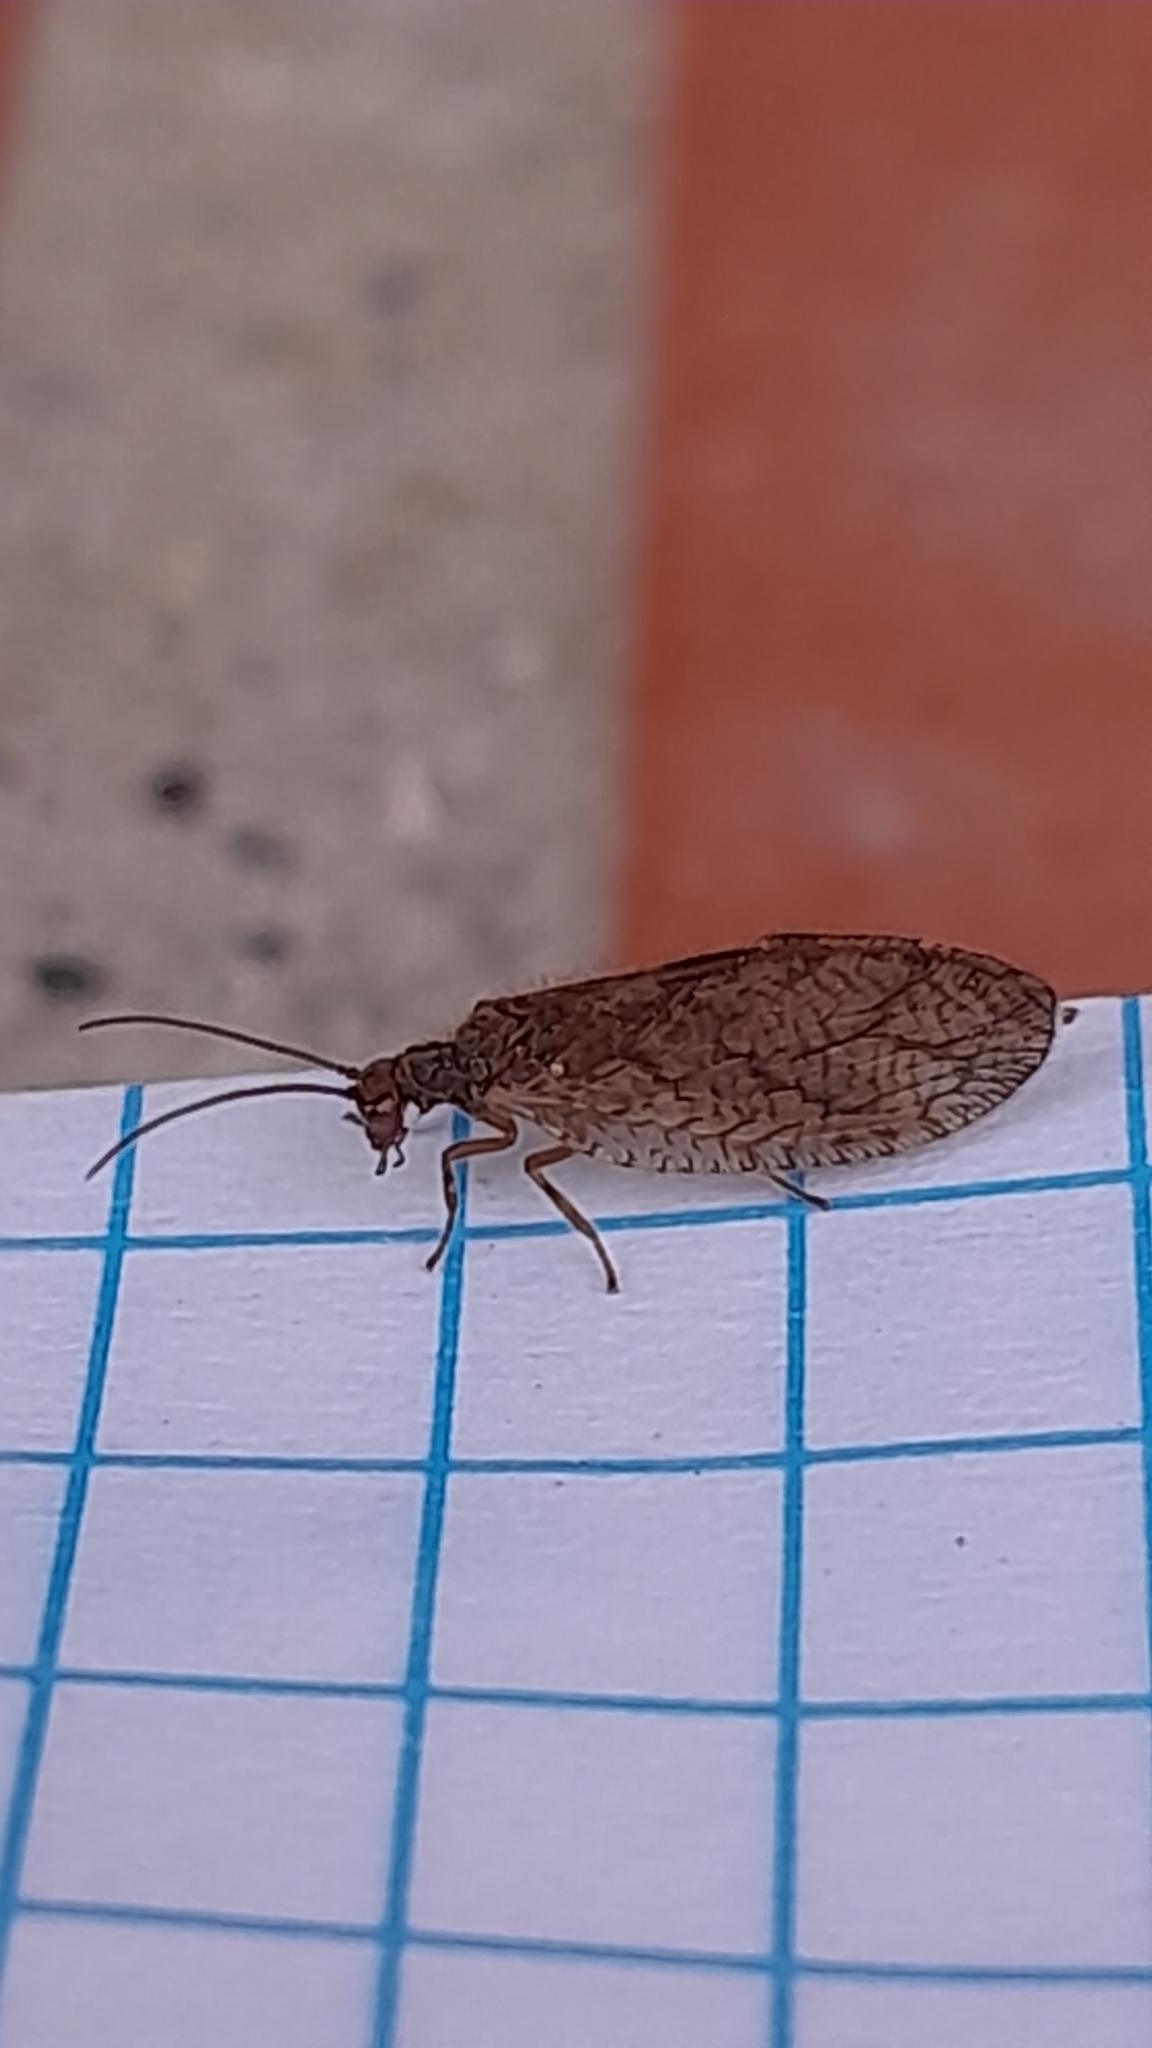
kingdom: Animalia
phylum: Arthropoda
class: Insecta
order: Neuroptera
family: Hemerobiidae
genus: Micromus
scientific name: Micromus angulatus
